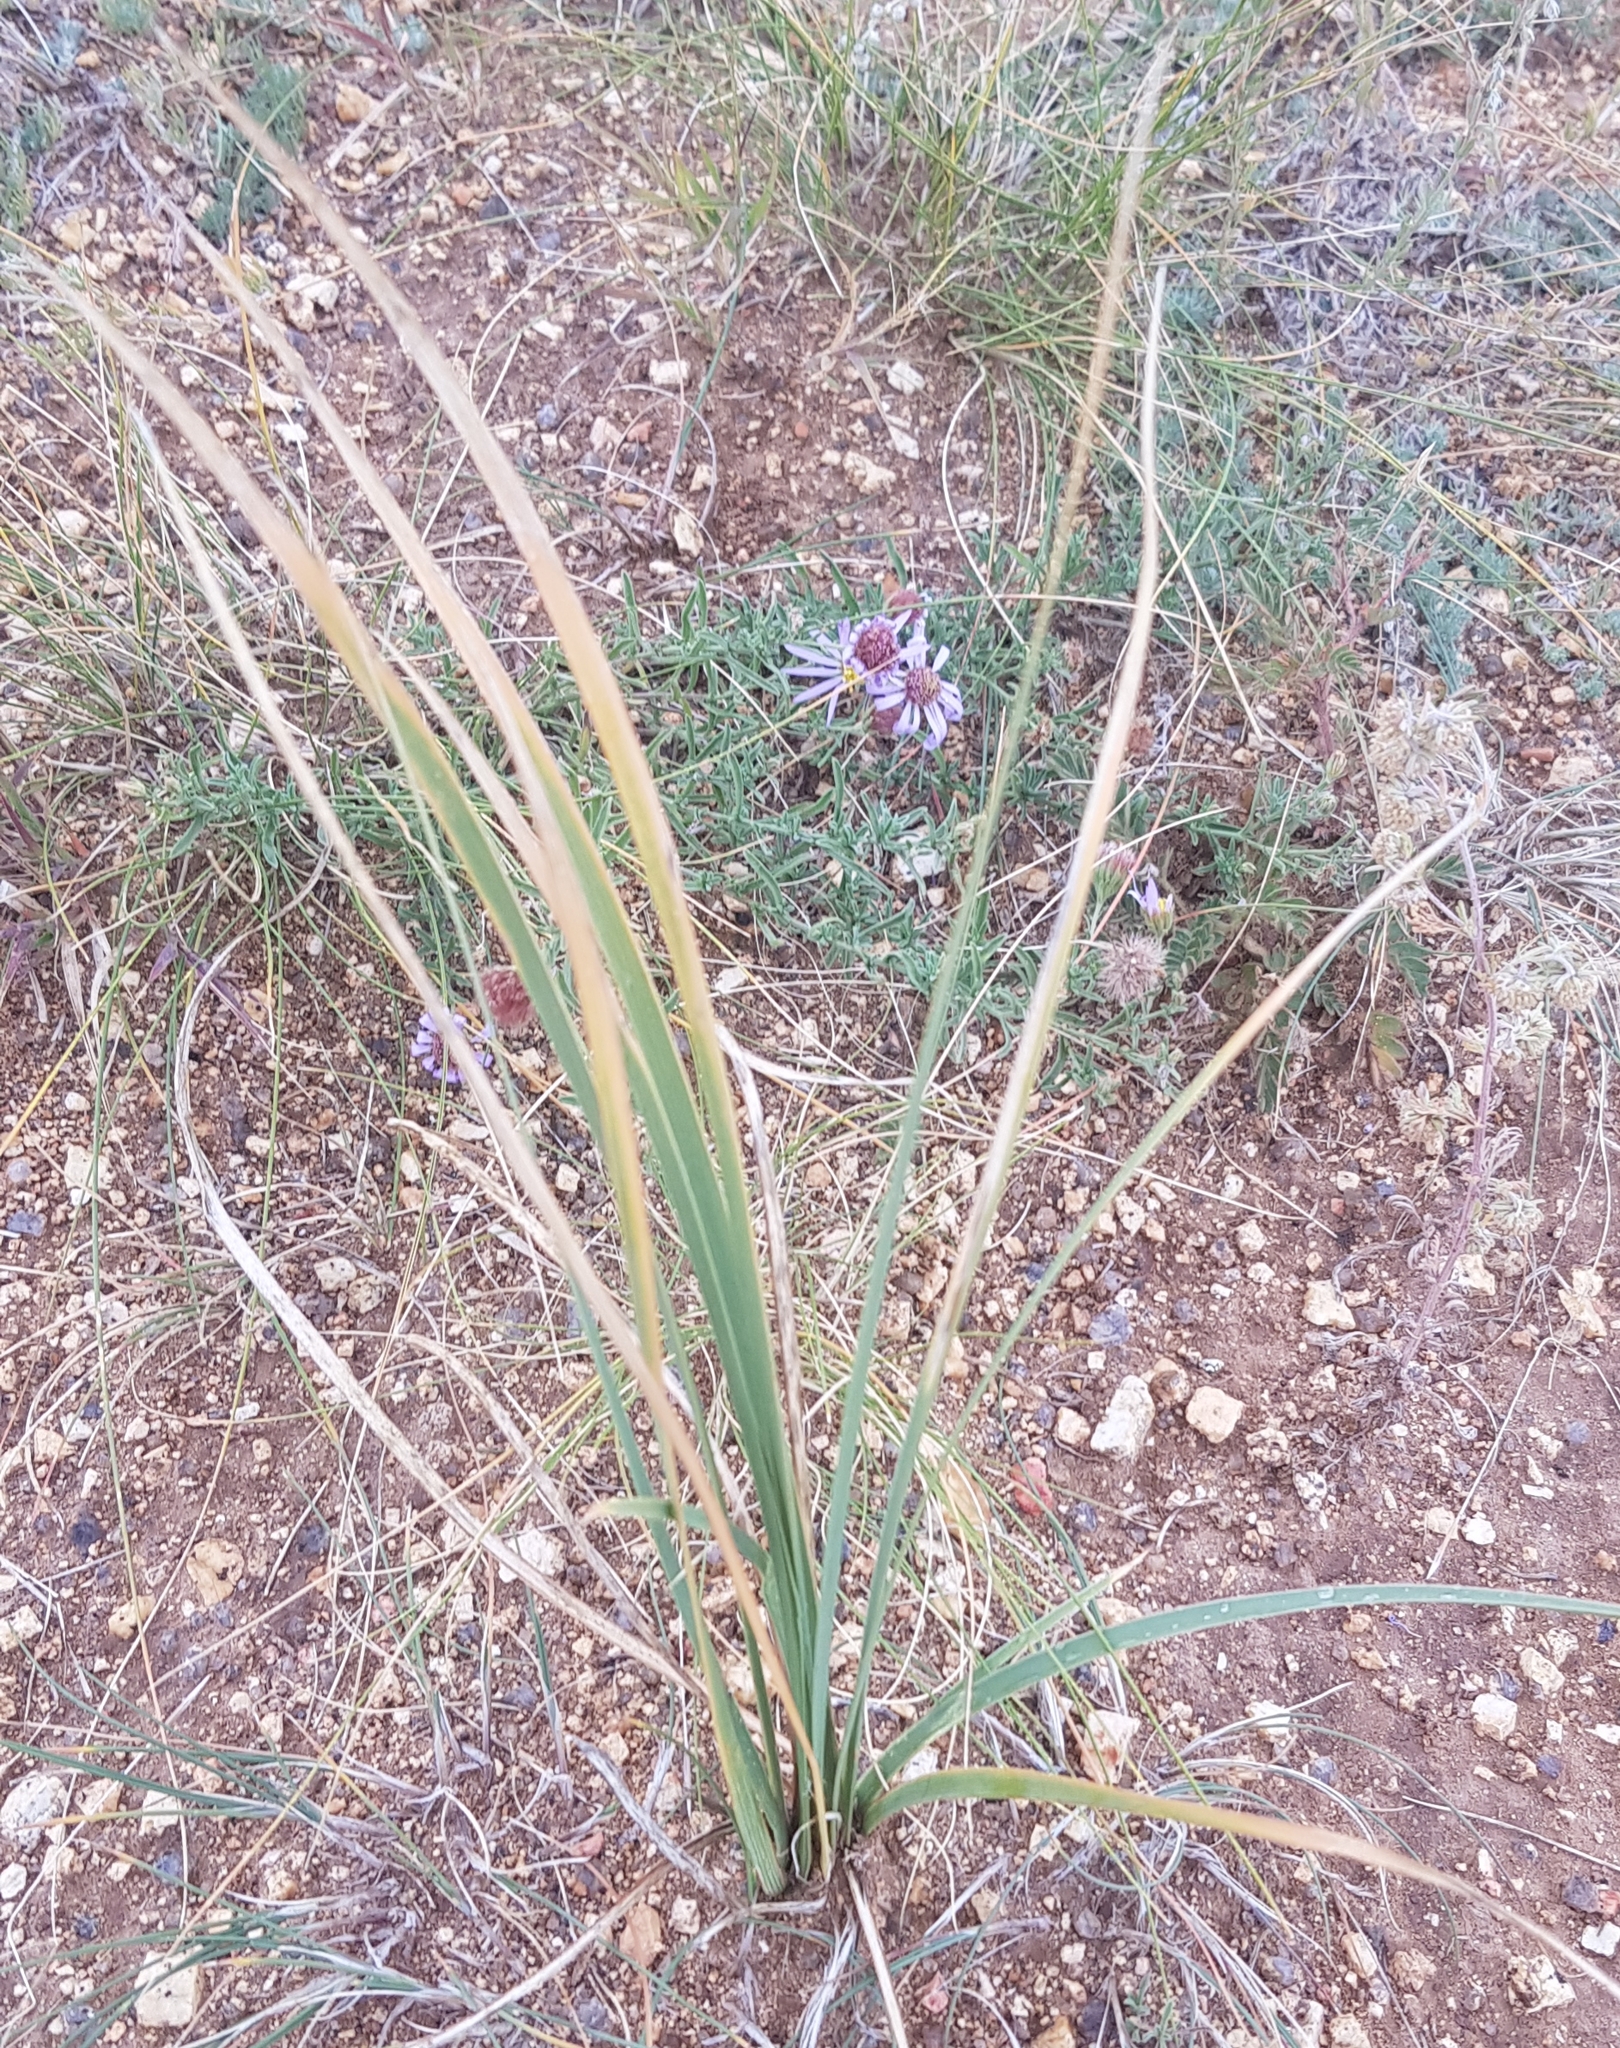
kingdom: Plantae
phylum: Tracheophyta
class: Liliopsida
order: Asparagales
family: Iridaceae
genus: Iris
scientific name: Iris bungei
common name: Large-bract iris
